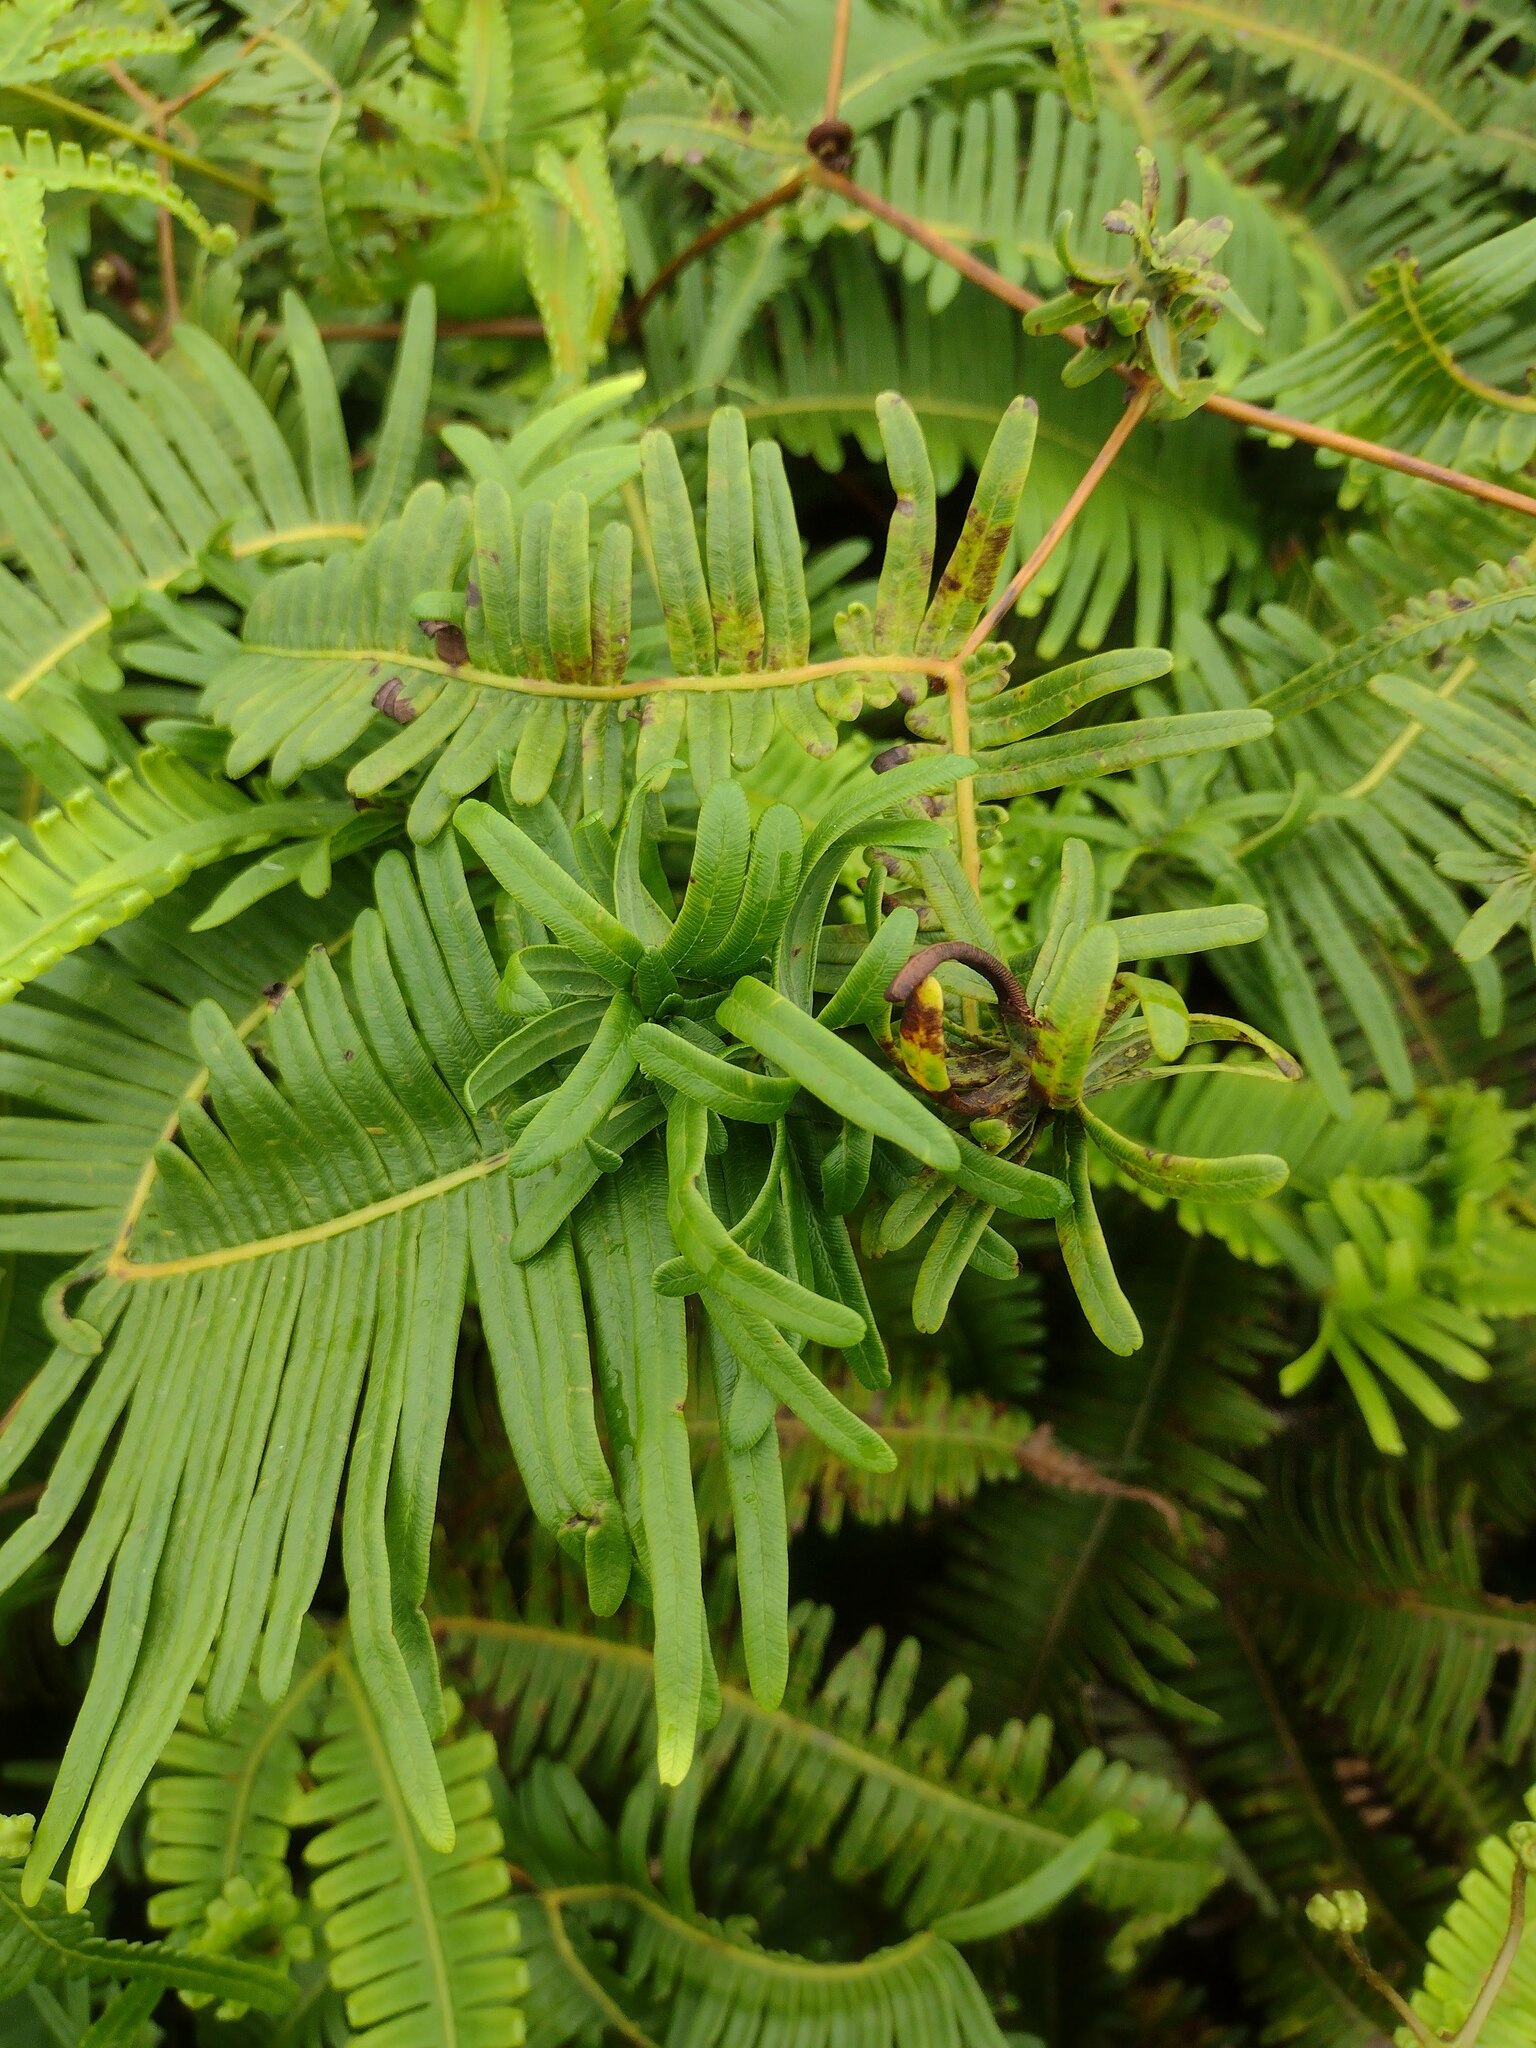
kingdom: Animalia
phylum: Arthropoda
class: Insecta
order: Hemiptera
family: Pseudococcidae
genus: Nesopedronia
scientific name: Nesopedronia hawaiiensis
